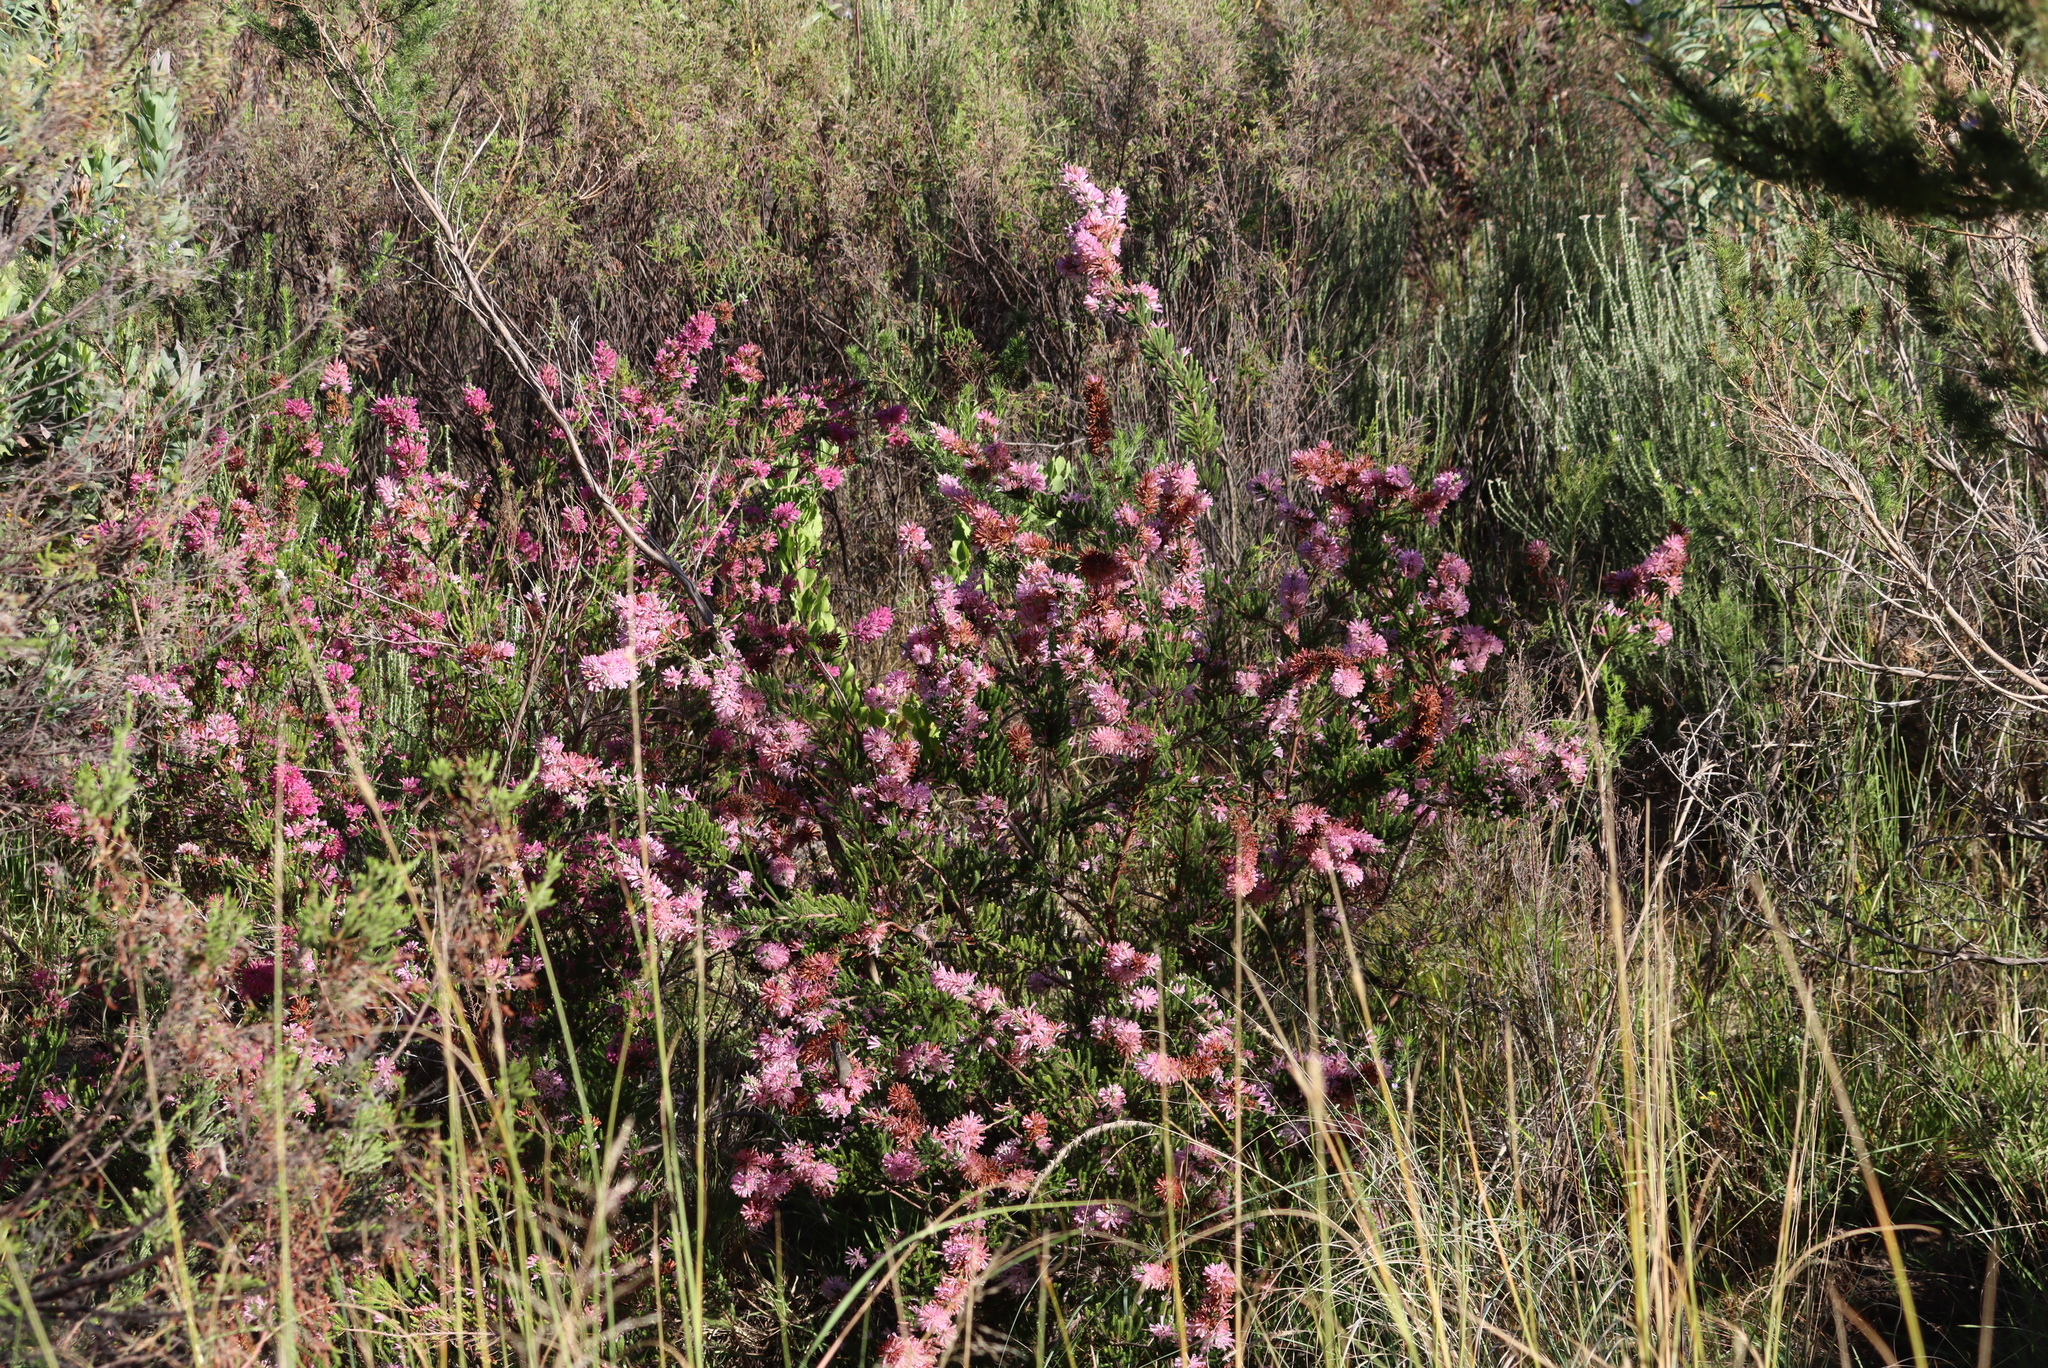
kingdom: Plantae
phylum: Tracheophyta
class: Magnoliopsida
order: Ericales
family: Ericaceae
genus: Erica
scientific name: Erica verticillata
